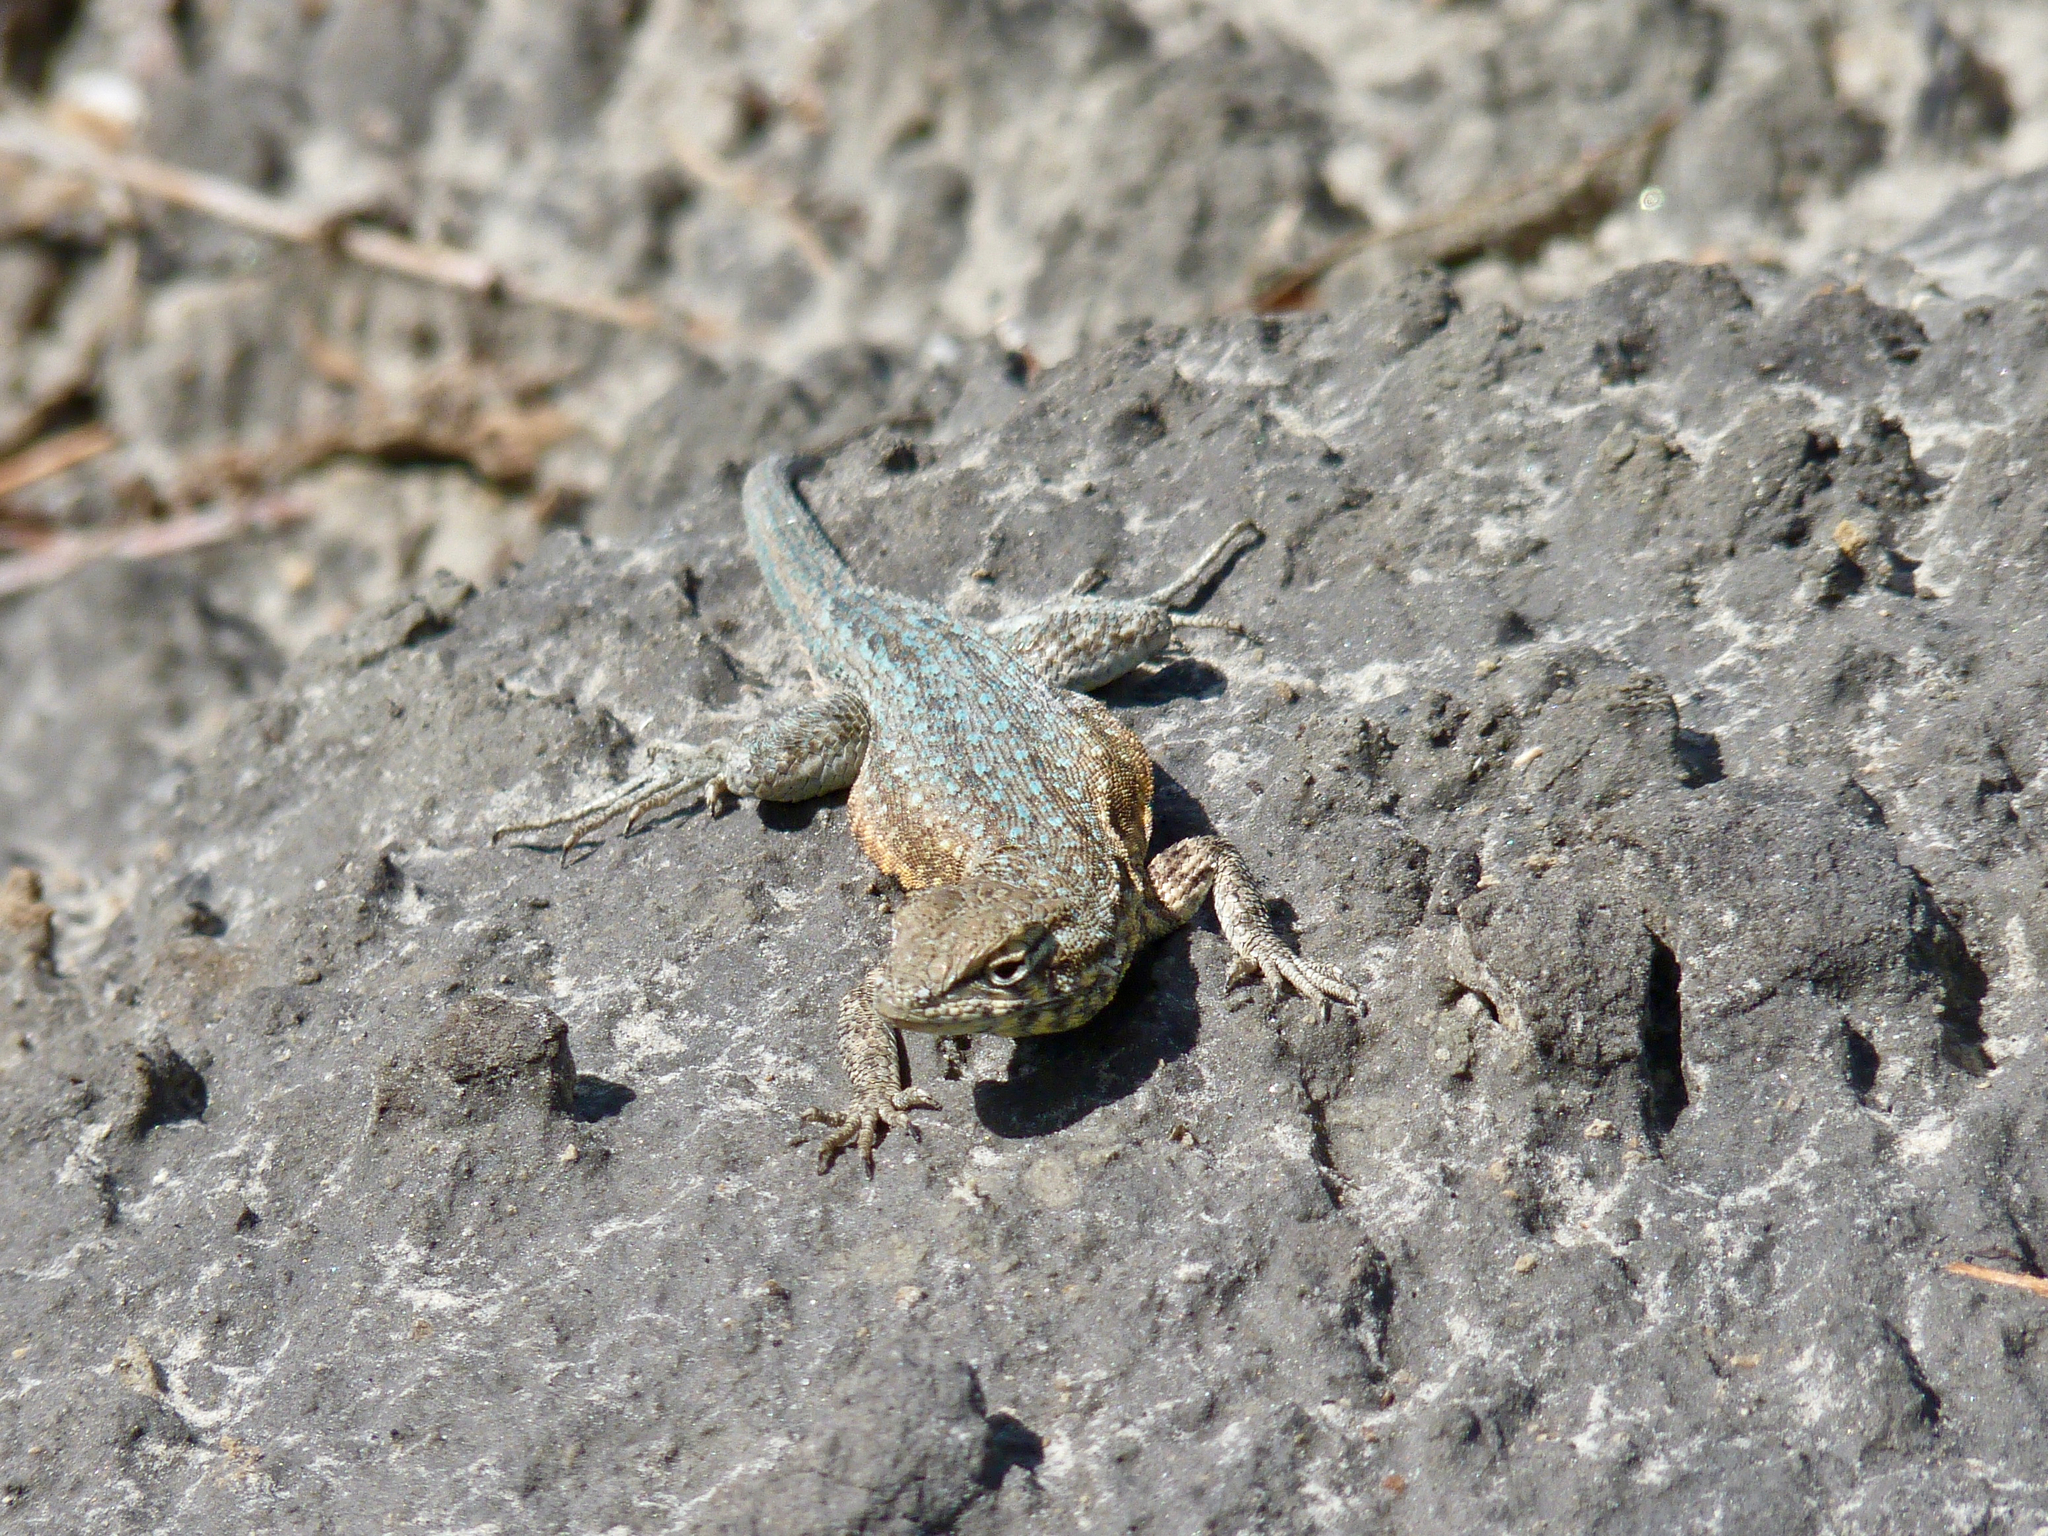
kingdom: Animalia
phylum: Chordata
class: Squamata
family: Phrynosomatidae
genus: Uta
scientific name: Uta stansburiana
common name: Side-blotched lizard
